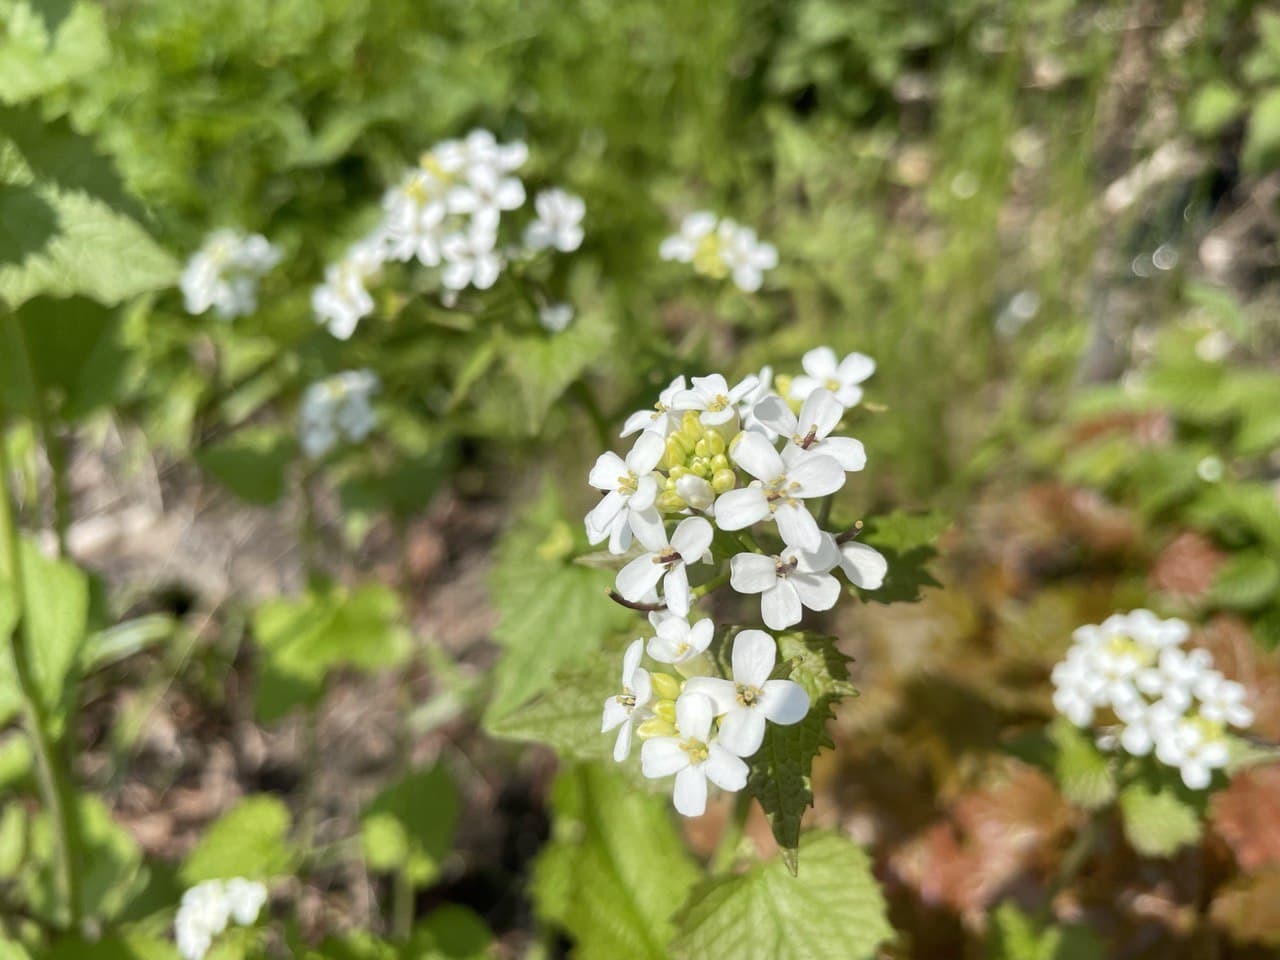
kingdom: Plantae
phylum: Tracheophyta
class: Magnoliopsida
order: Brassicales
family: Brassicaceae
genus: Alliaria
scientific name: Alliaria petiolata
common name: Garlic mustard
